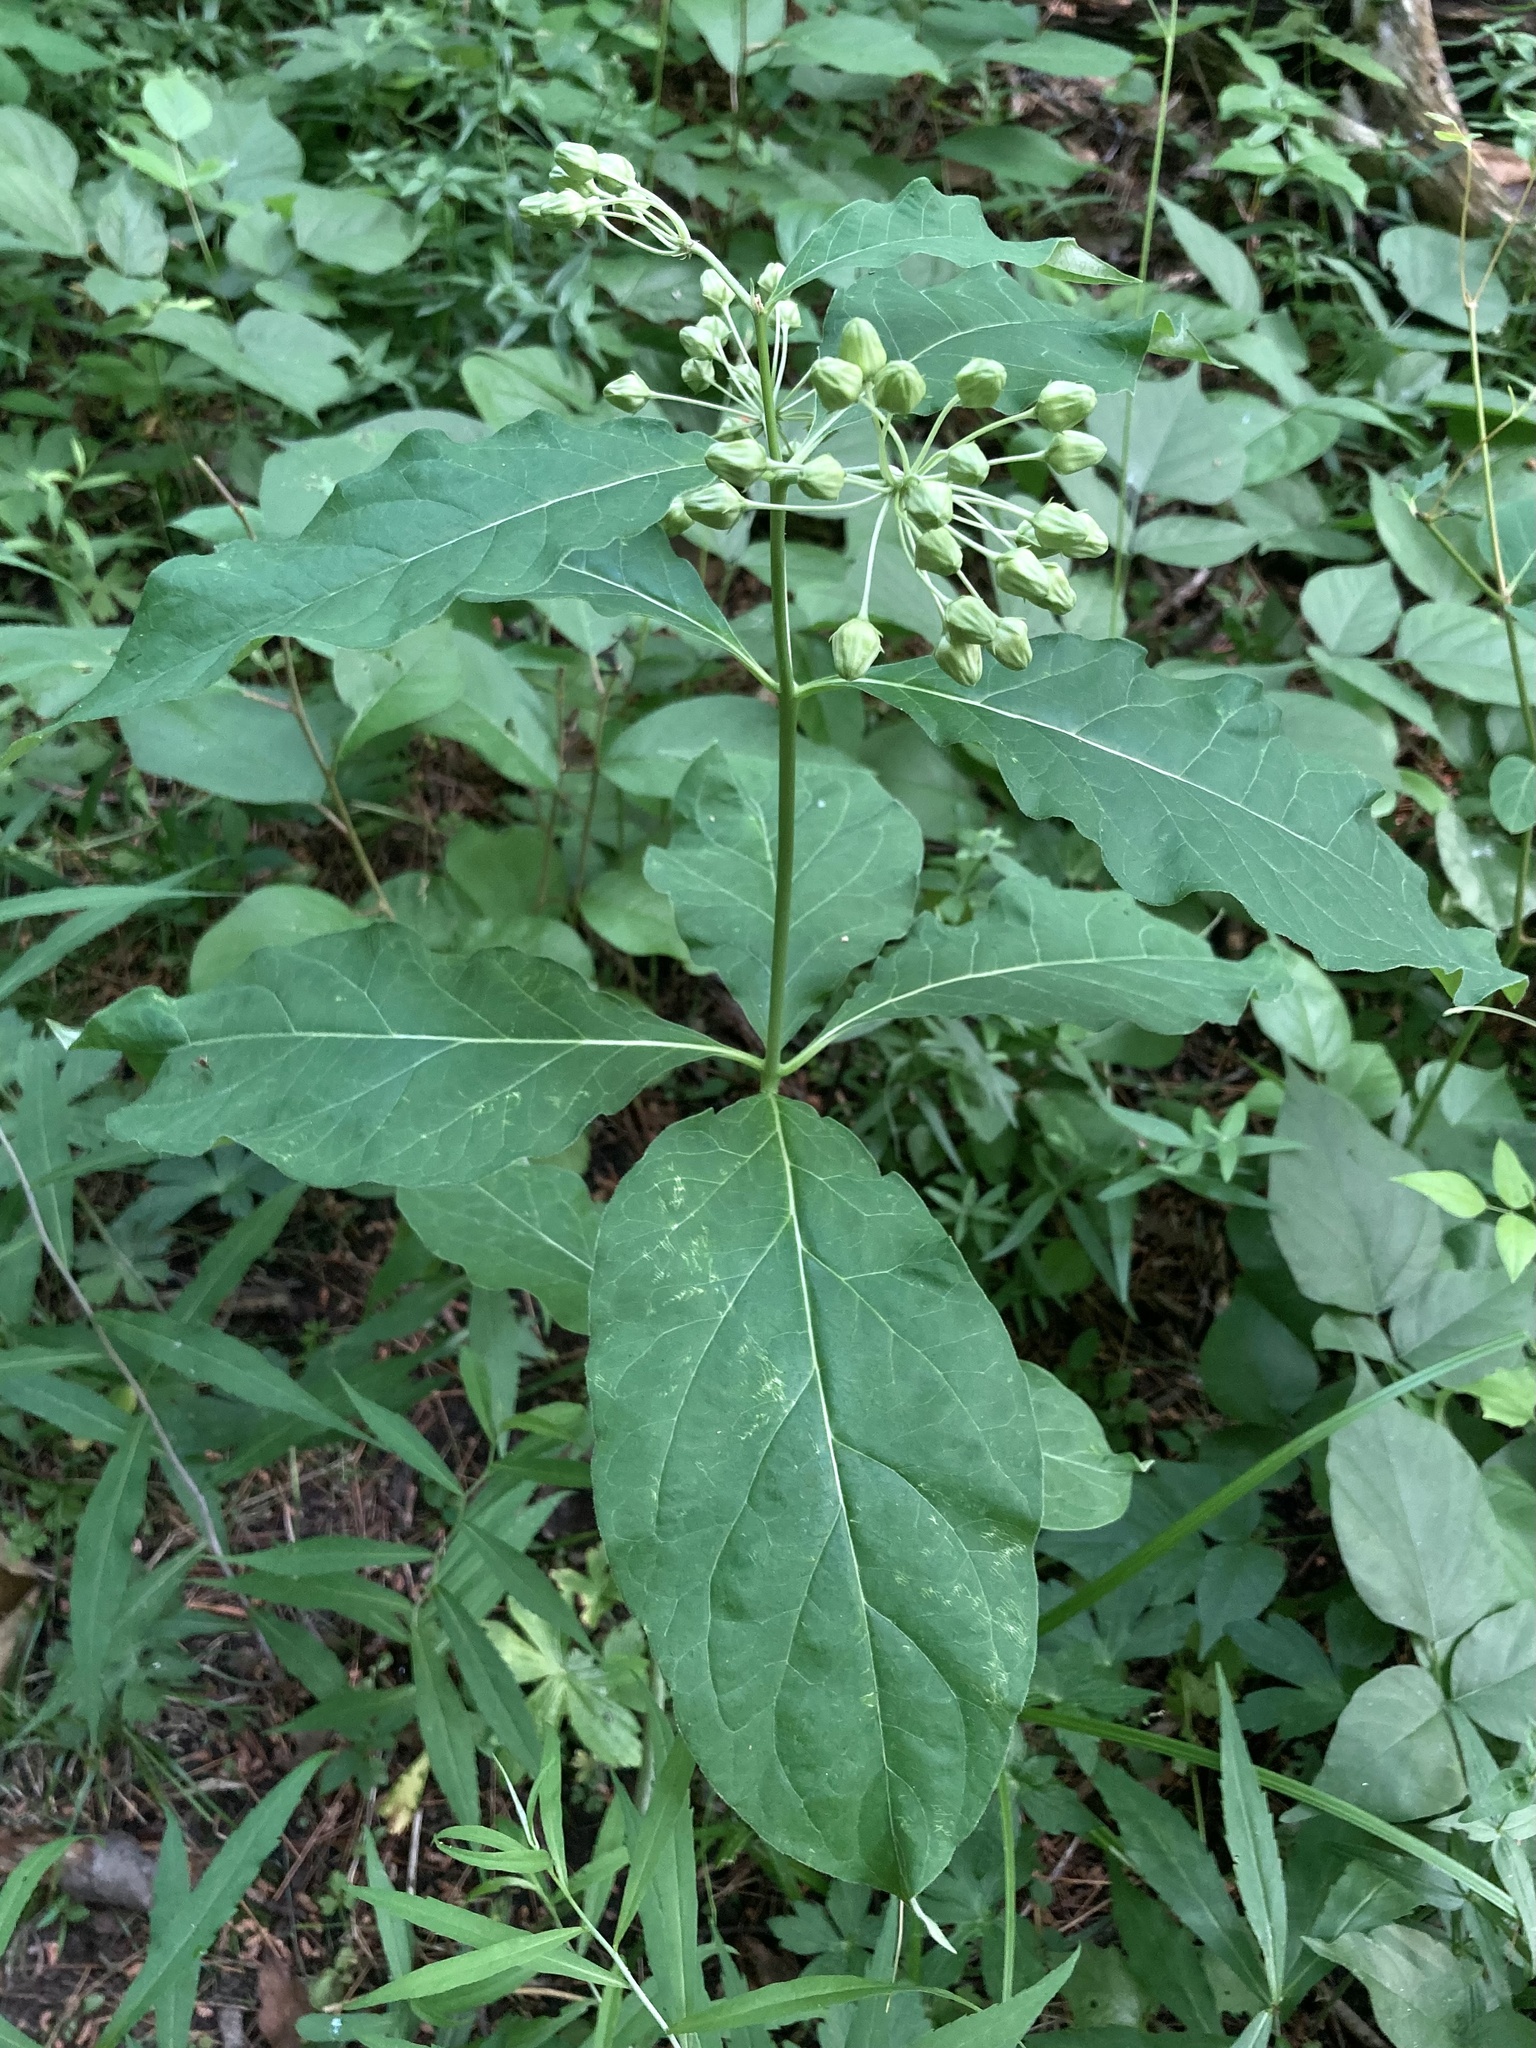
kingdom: Plantae
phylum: Tracheophyta
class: Magnoliopsida
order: Gentianales
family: Apocynaceae
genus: Asclepias
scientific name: Asclepias exaltata
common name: Poke milkweed
